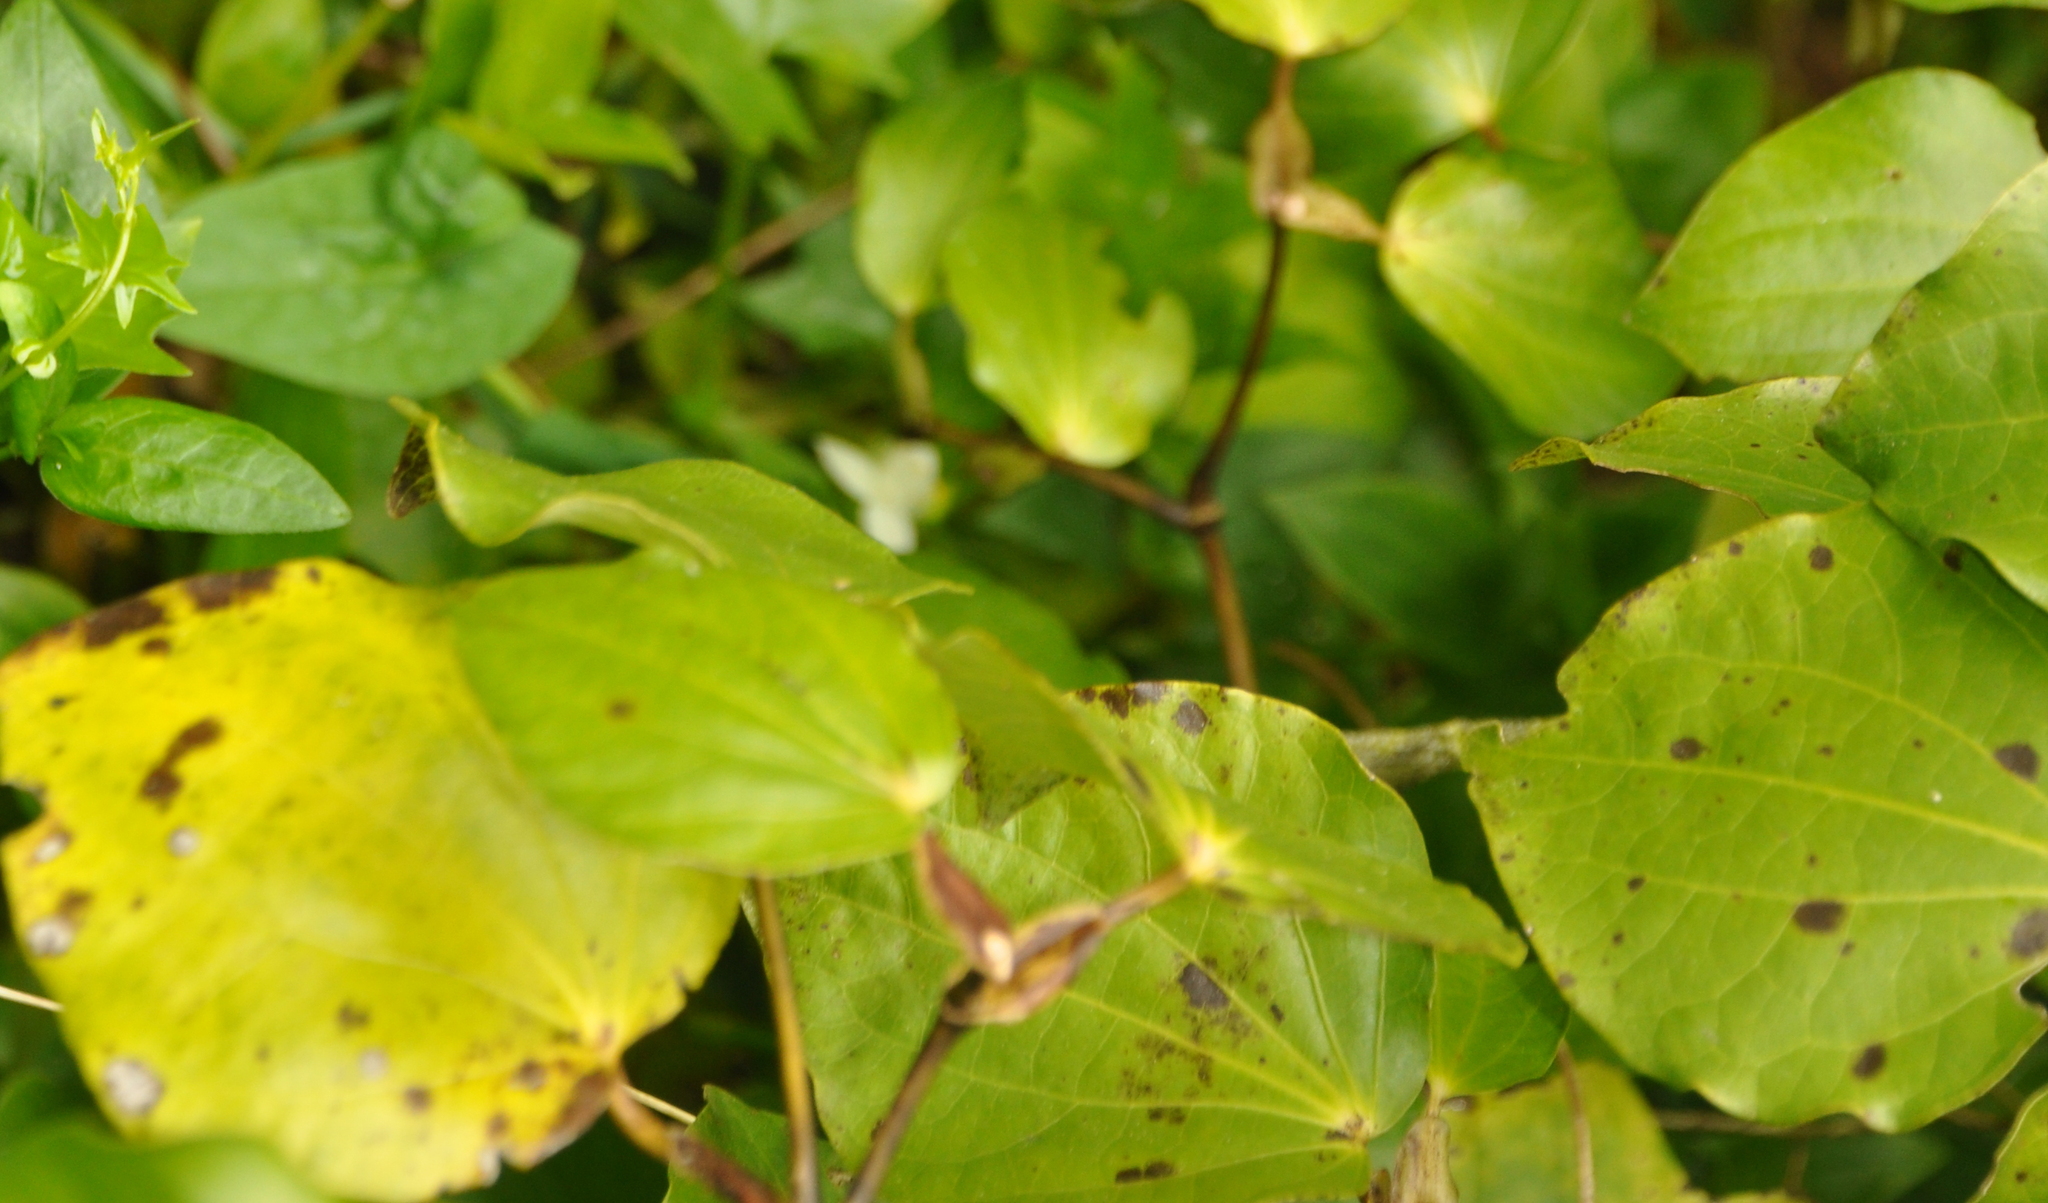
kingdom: Plantae
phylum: Tracheophyta
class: Magnoliopsida
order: Piperales
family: Piperaceae
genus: Macropiper
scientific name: Macropiper excelsum
